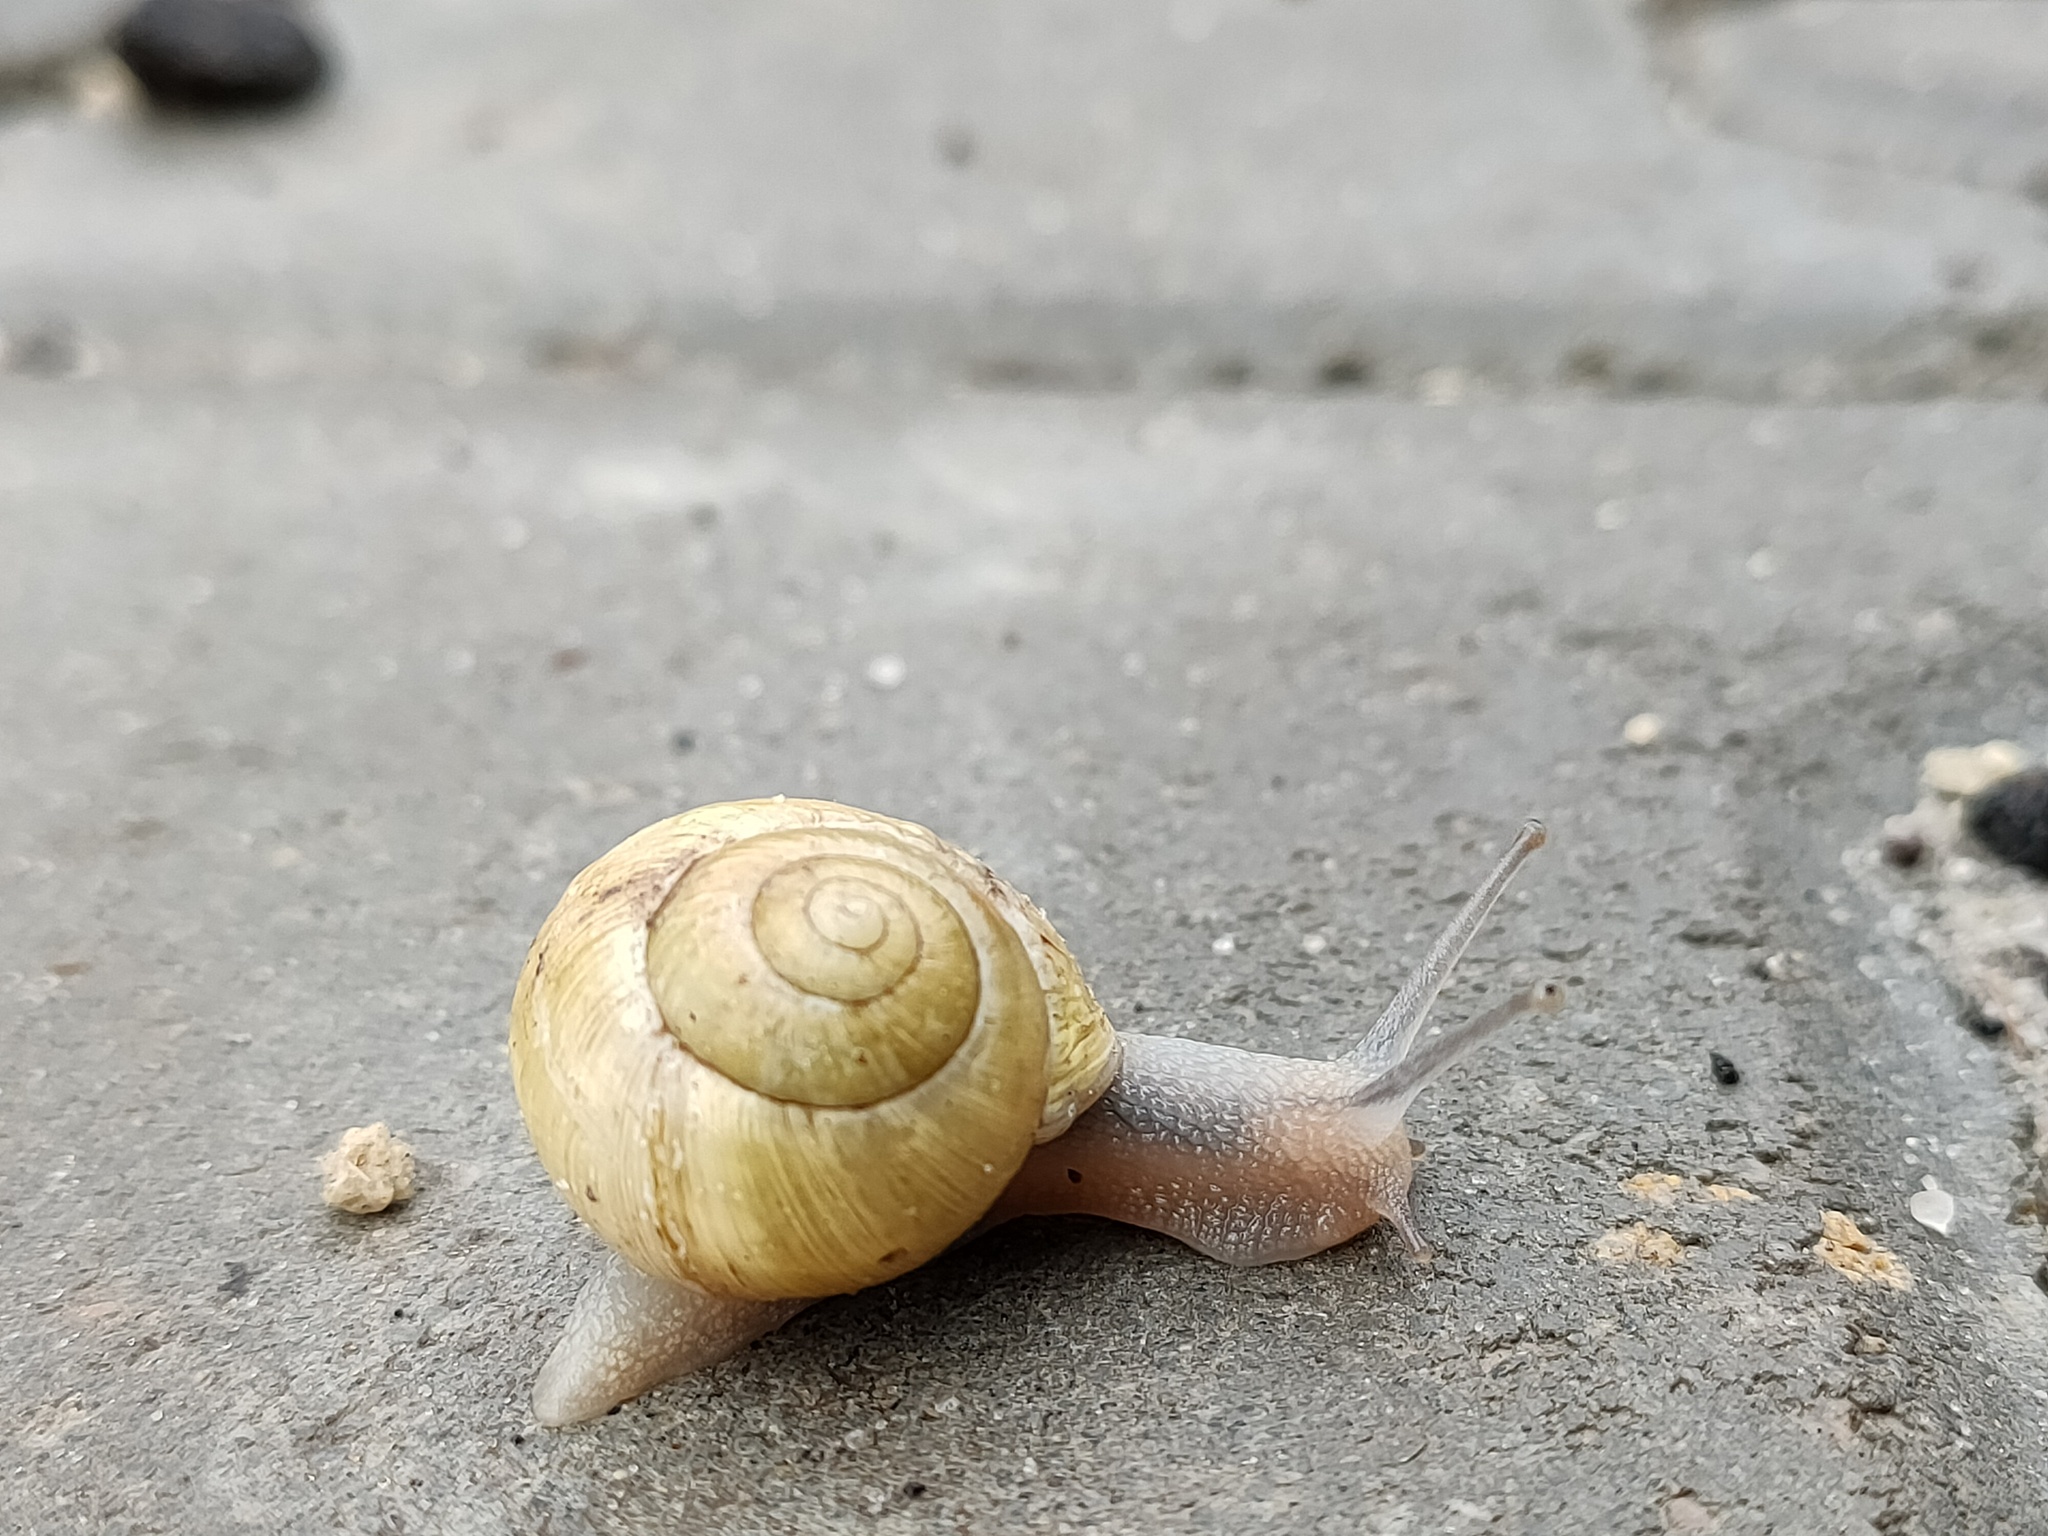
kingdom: Animalia
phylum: Mollusca
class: Gastropoda
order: Stylommatophora
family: Helicidae
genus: Cepaea
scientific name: Cepaea hortensis
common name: White-lip gardensnail
